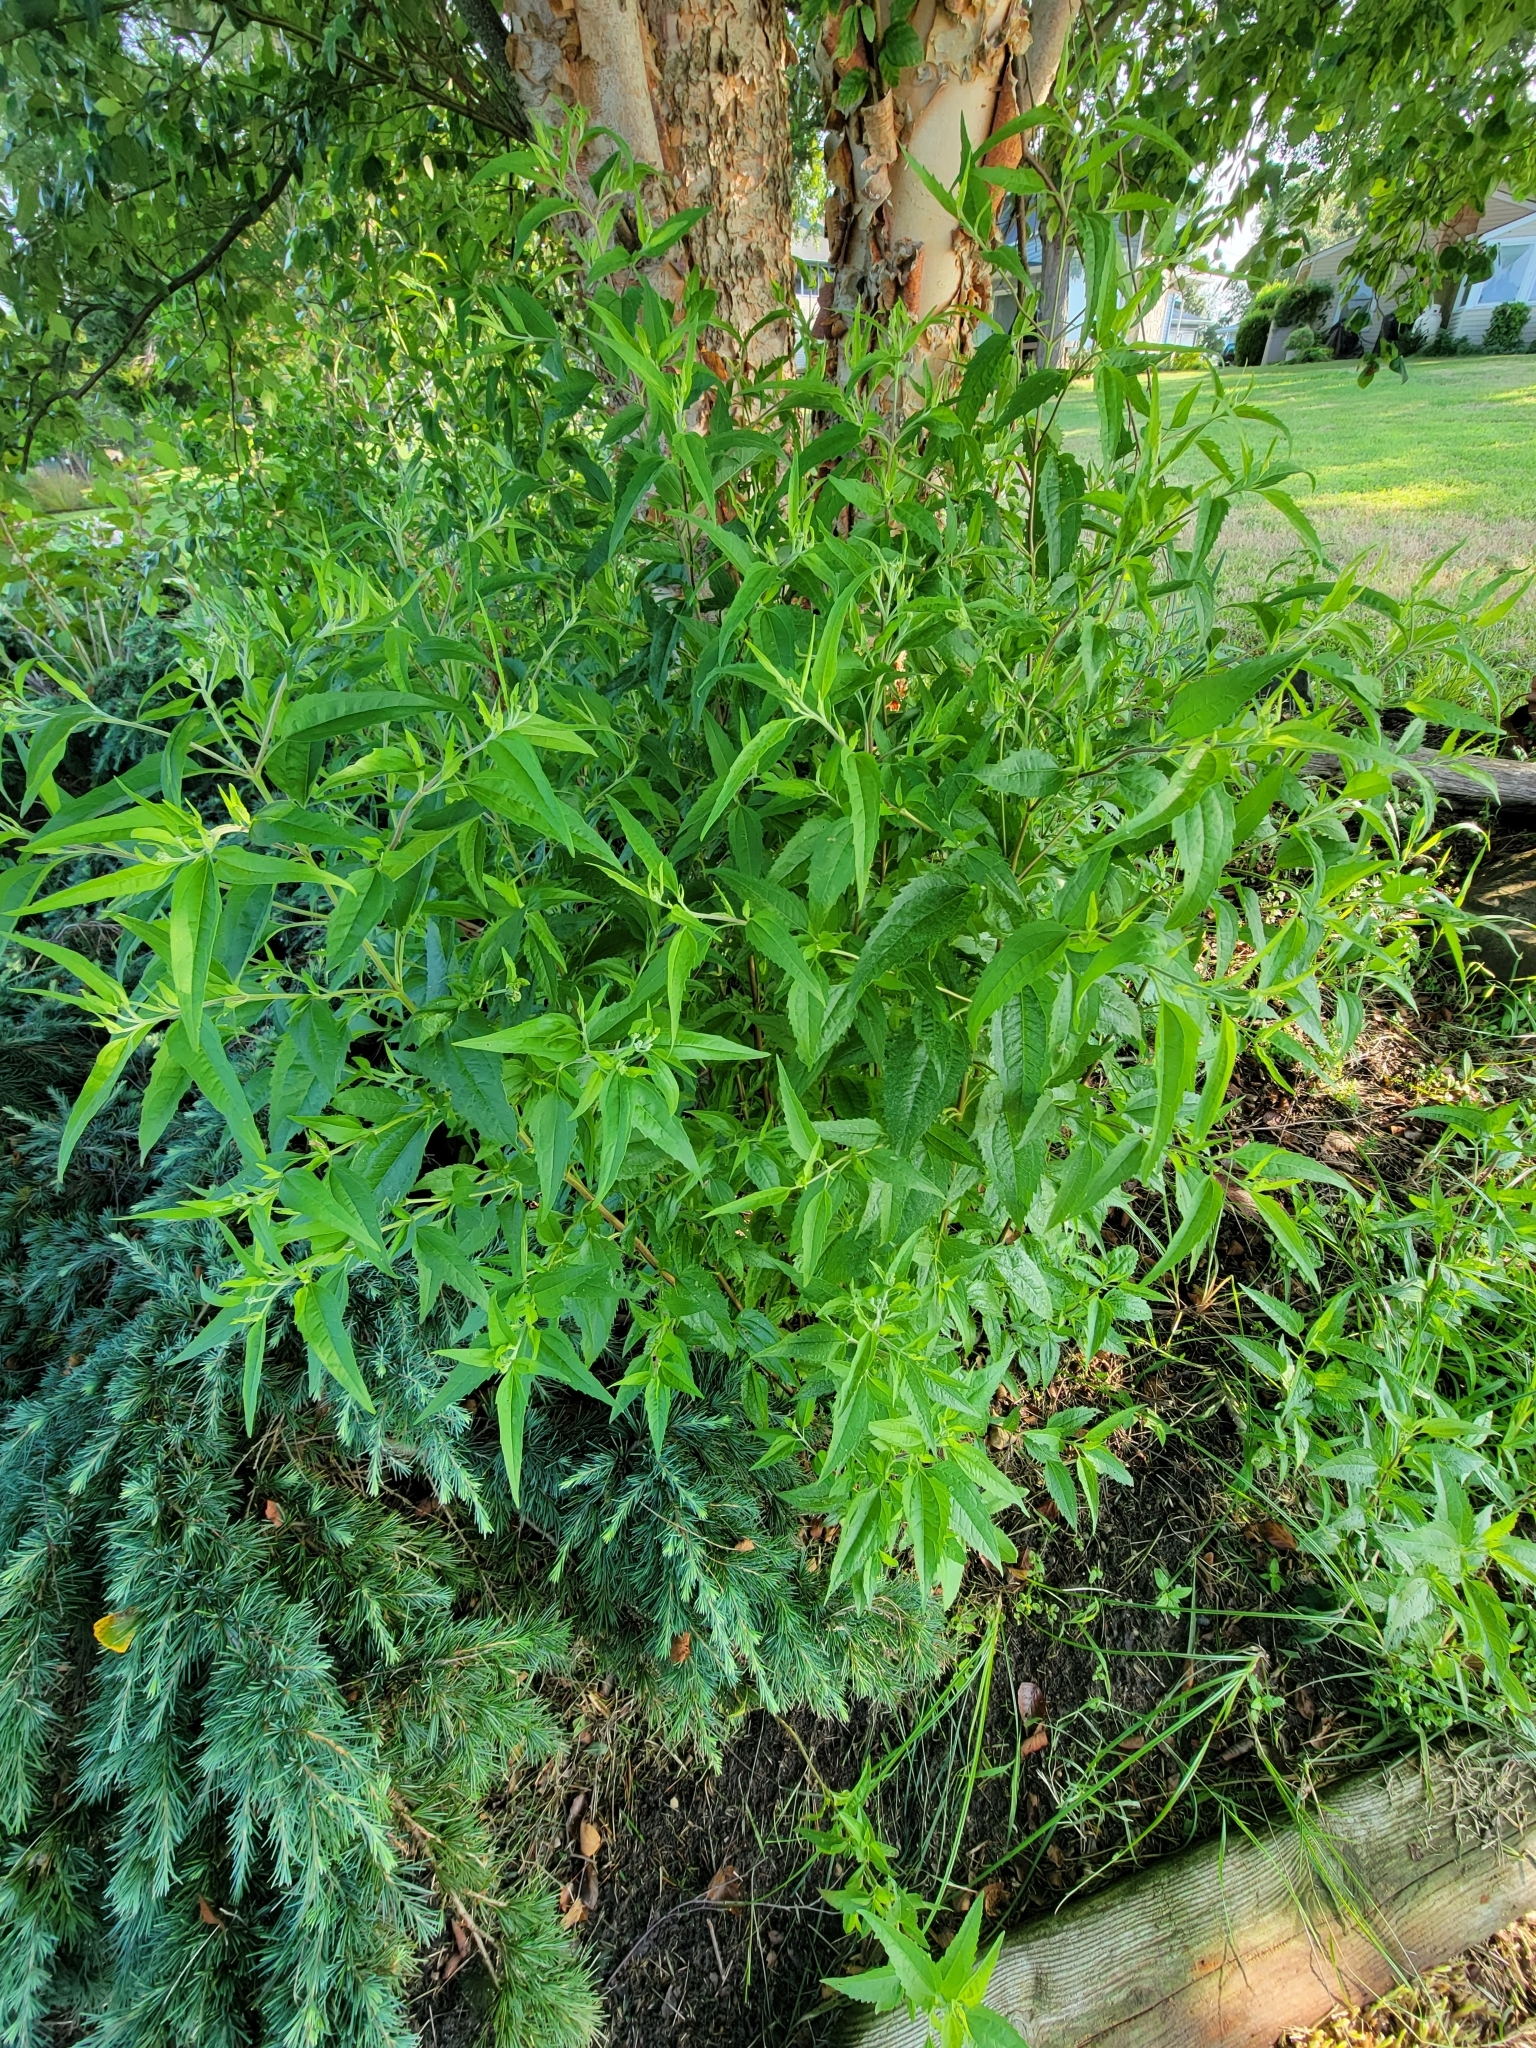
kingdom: Plantae
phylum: Tracheophyta
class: Magnoliopsida
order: Asterales
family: Asteraceae
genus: Eupatorium
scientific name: Eupatorium serotinum
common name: Late boneset
